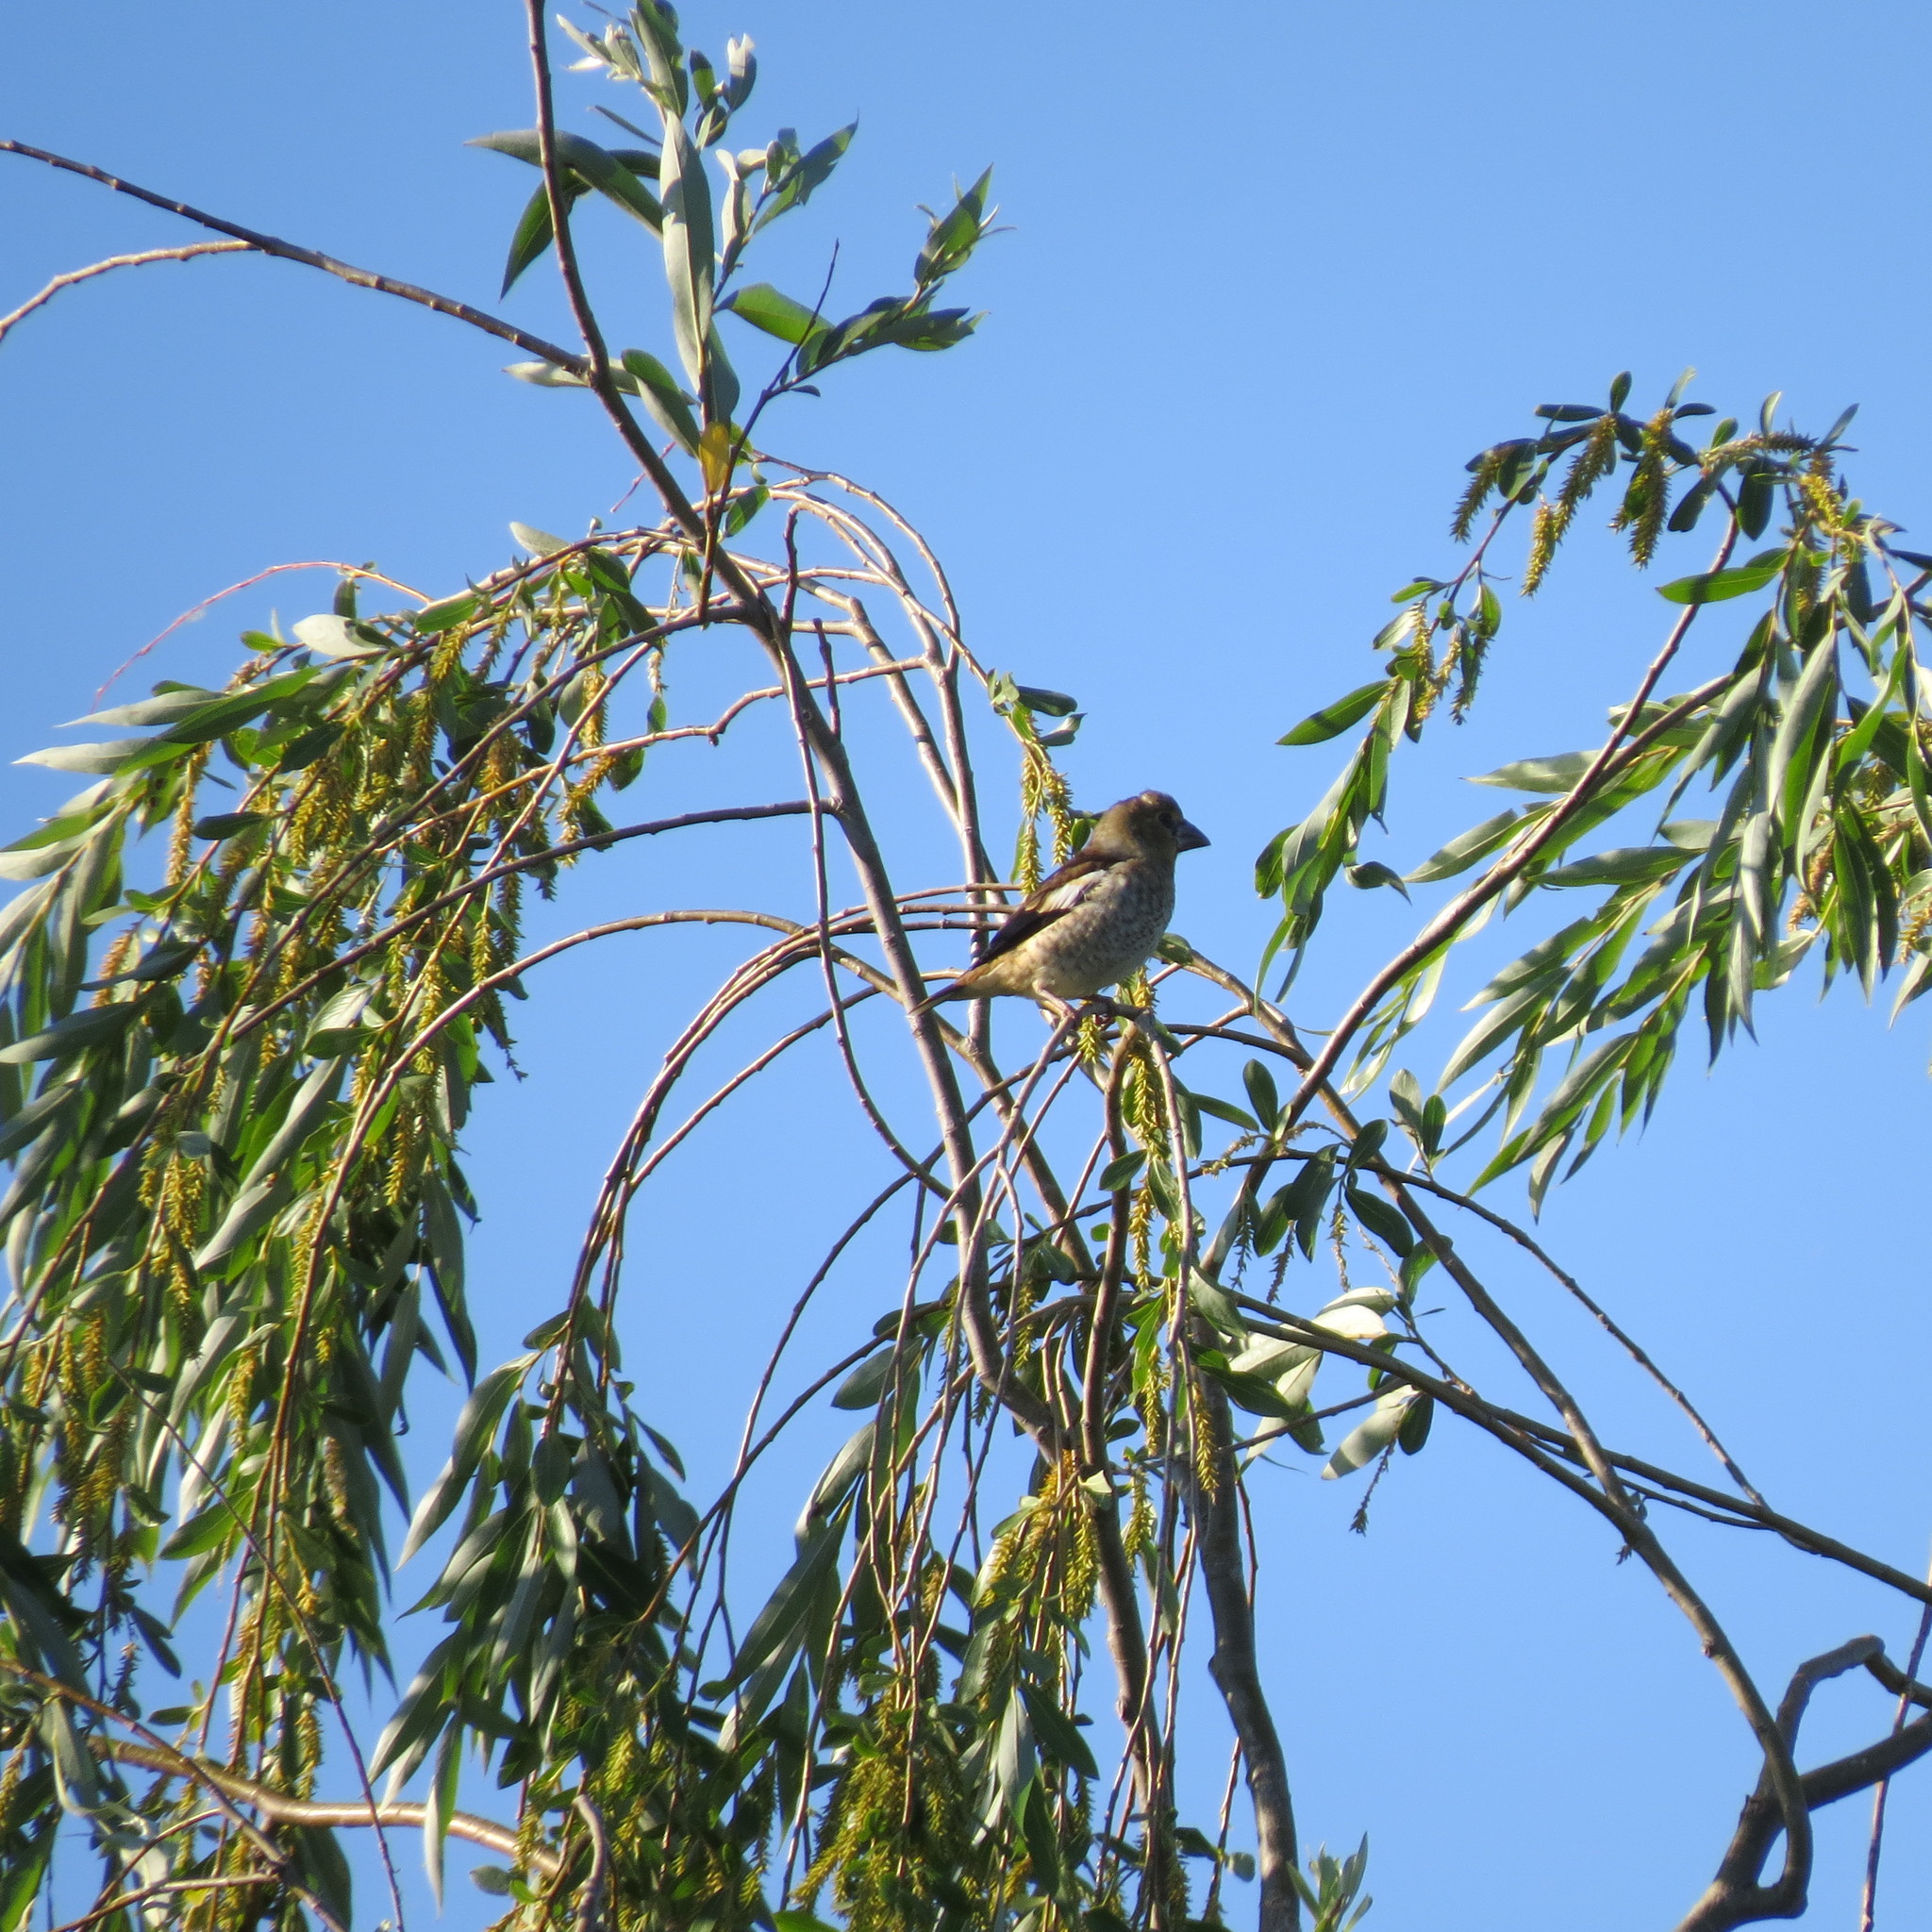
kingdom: Animalia
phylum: Chordata
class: Aves
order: Passeriformes
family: Fringillidae
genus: Coccothraustes
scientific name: Coccothraustes coccothraustes
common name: Hawfinch
